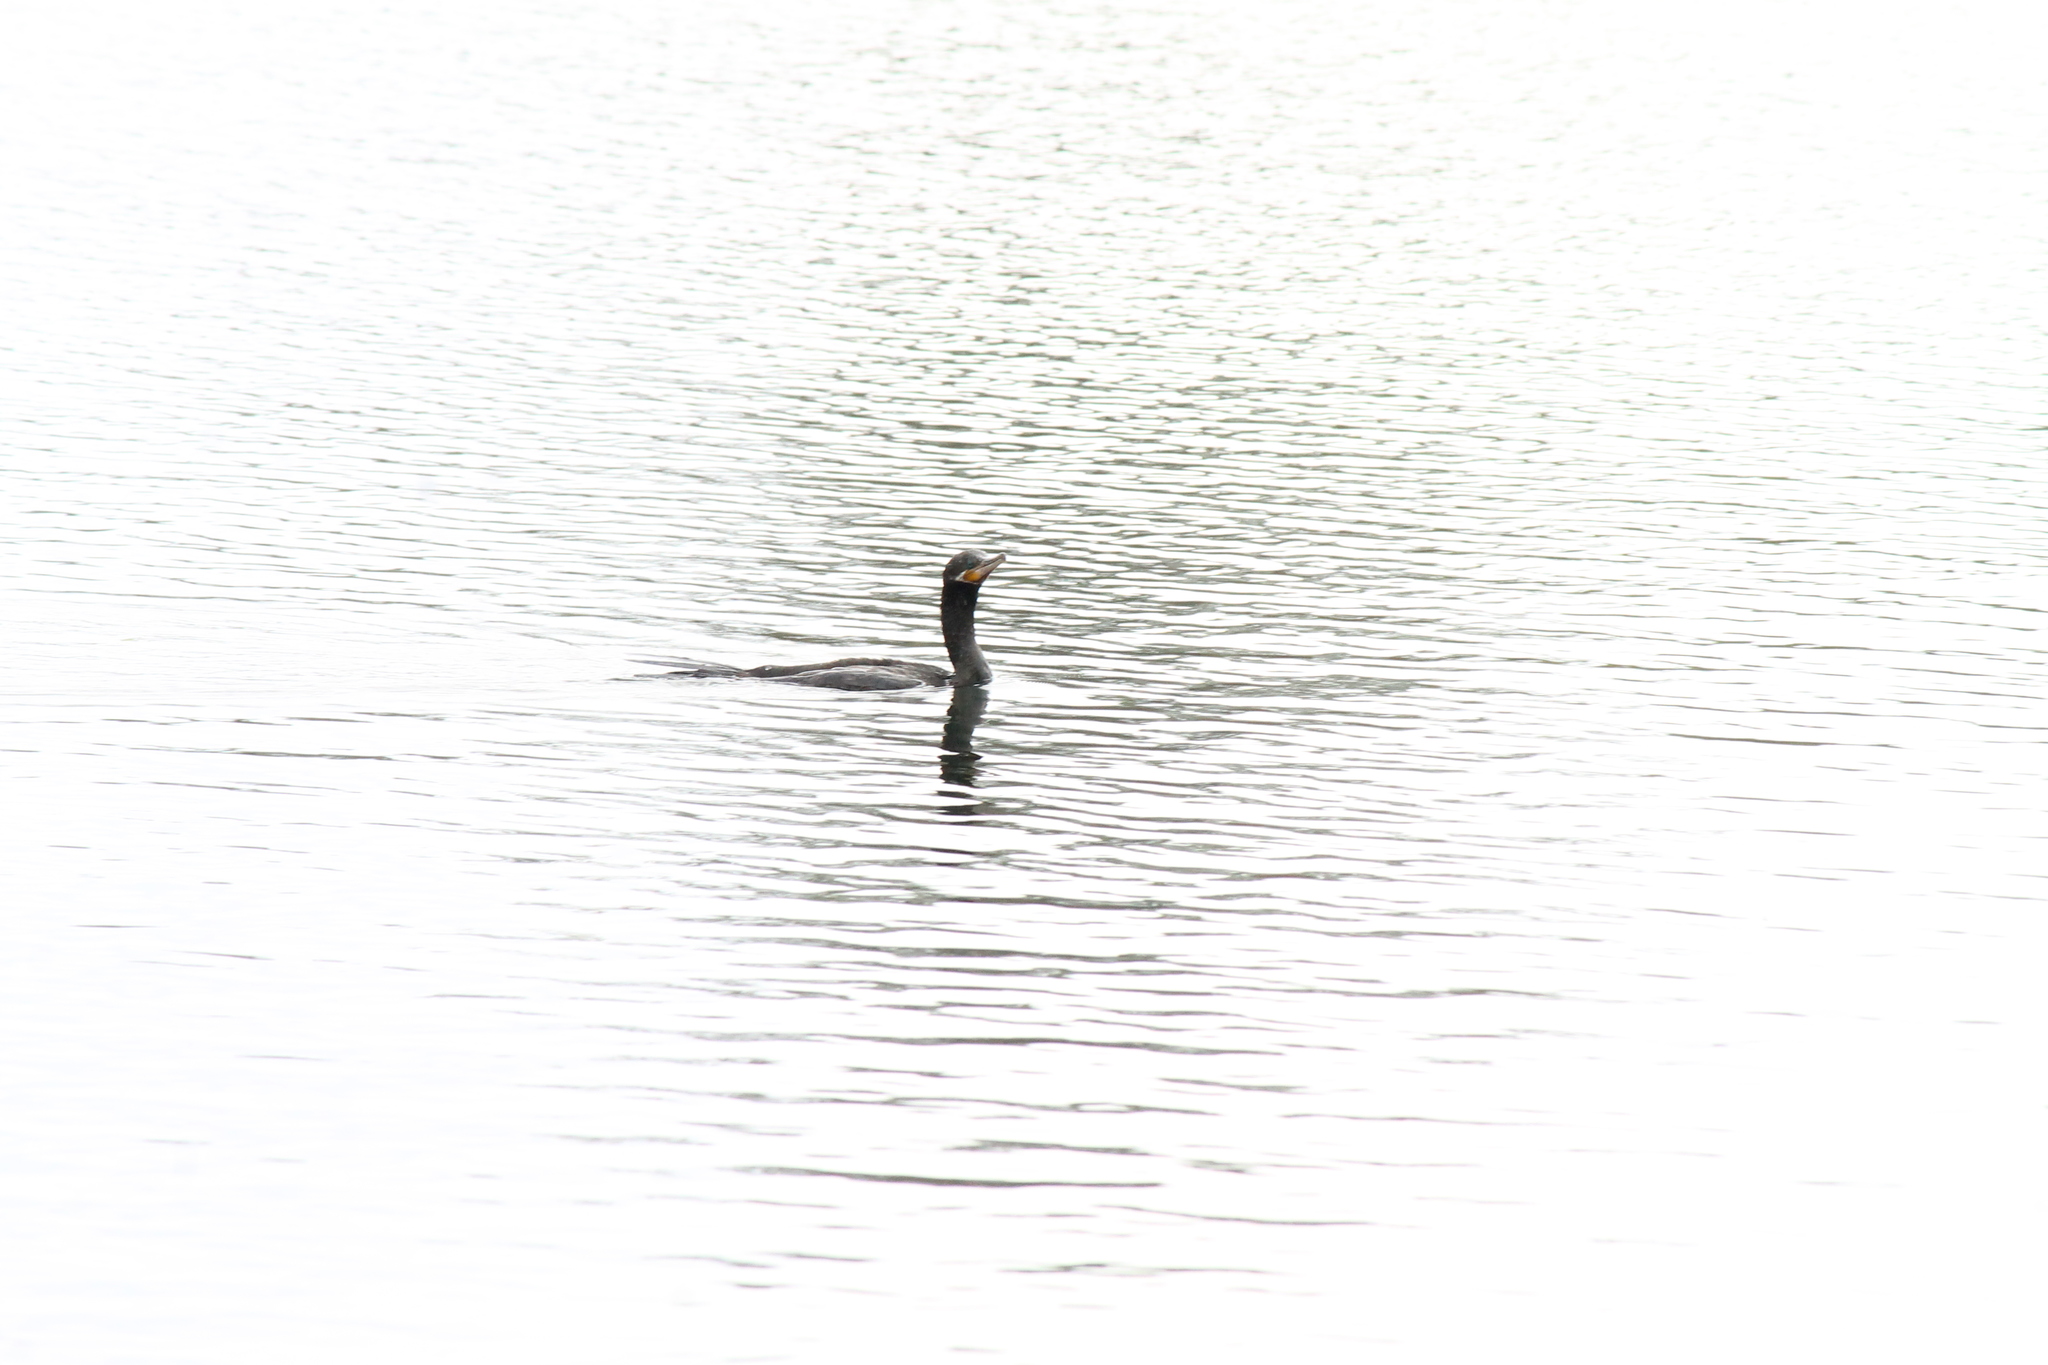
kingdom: Animalia
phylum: Chordata
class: Aves
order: Suliformes
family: Phalacrocoracidae
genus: Phalacrocorax
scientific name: Phalacrocorax brasilianus
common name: Neotropic cormorant
